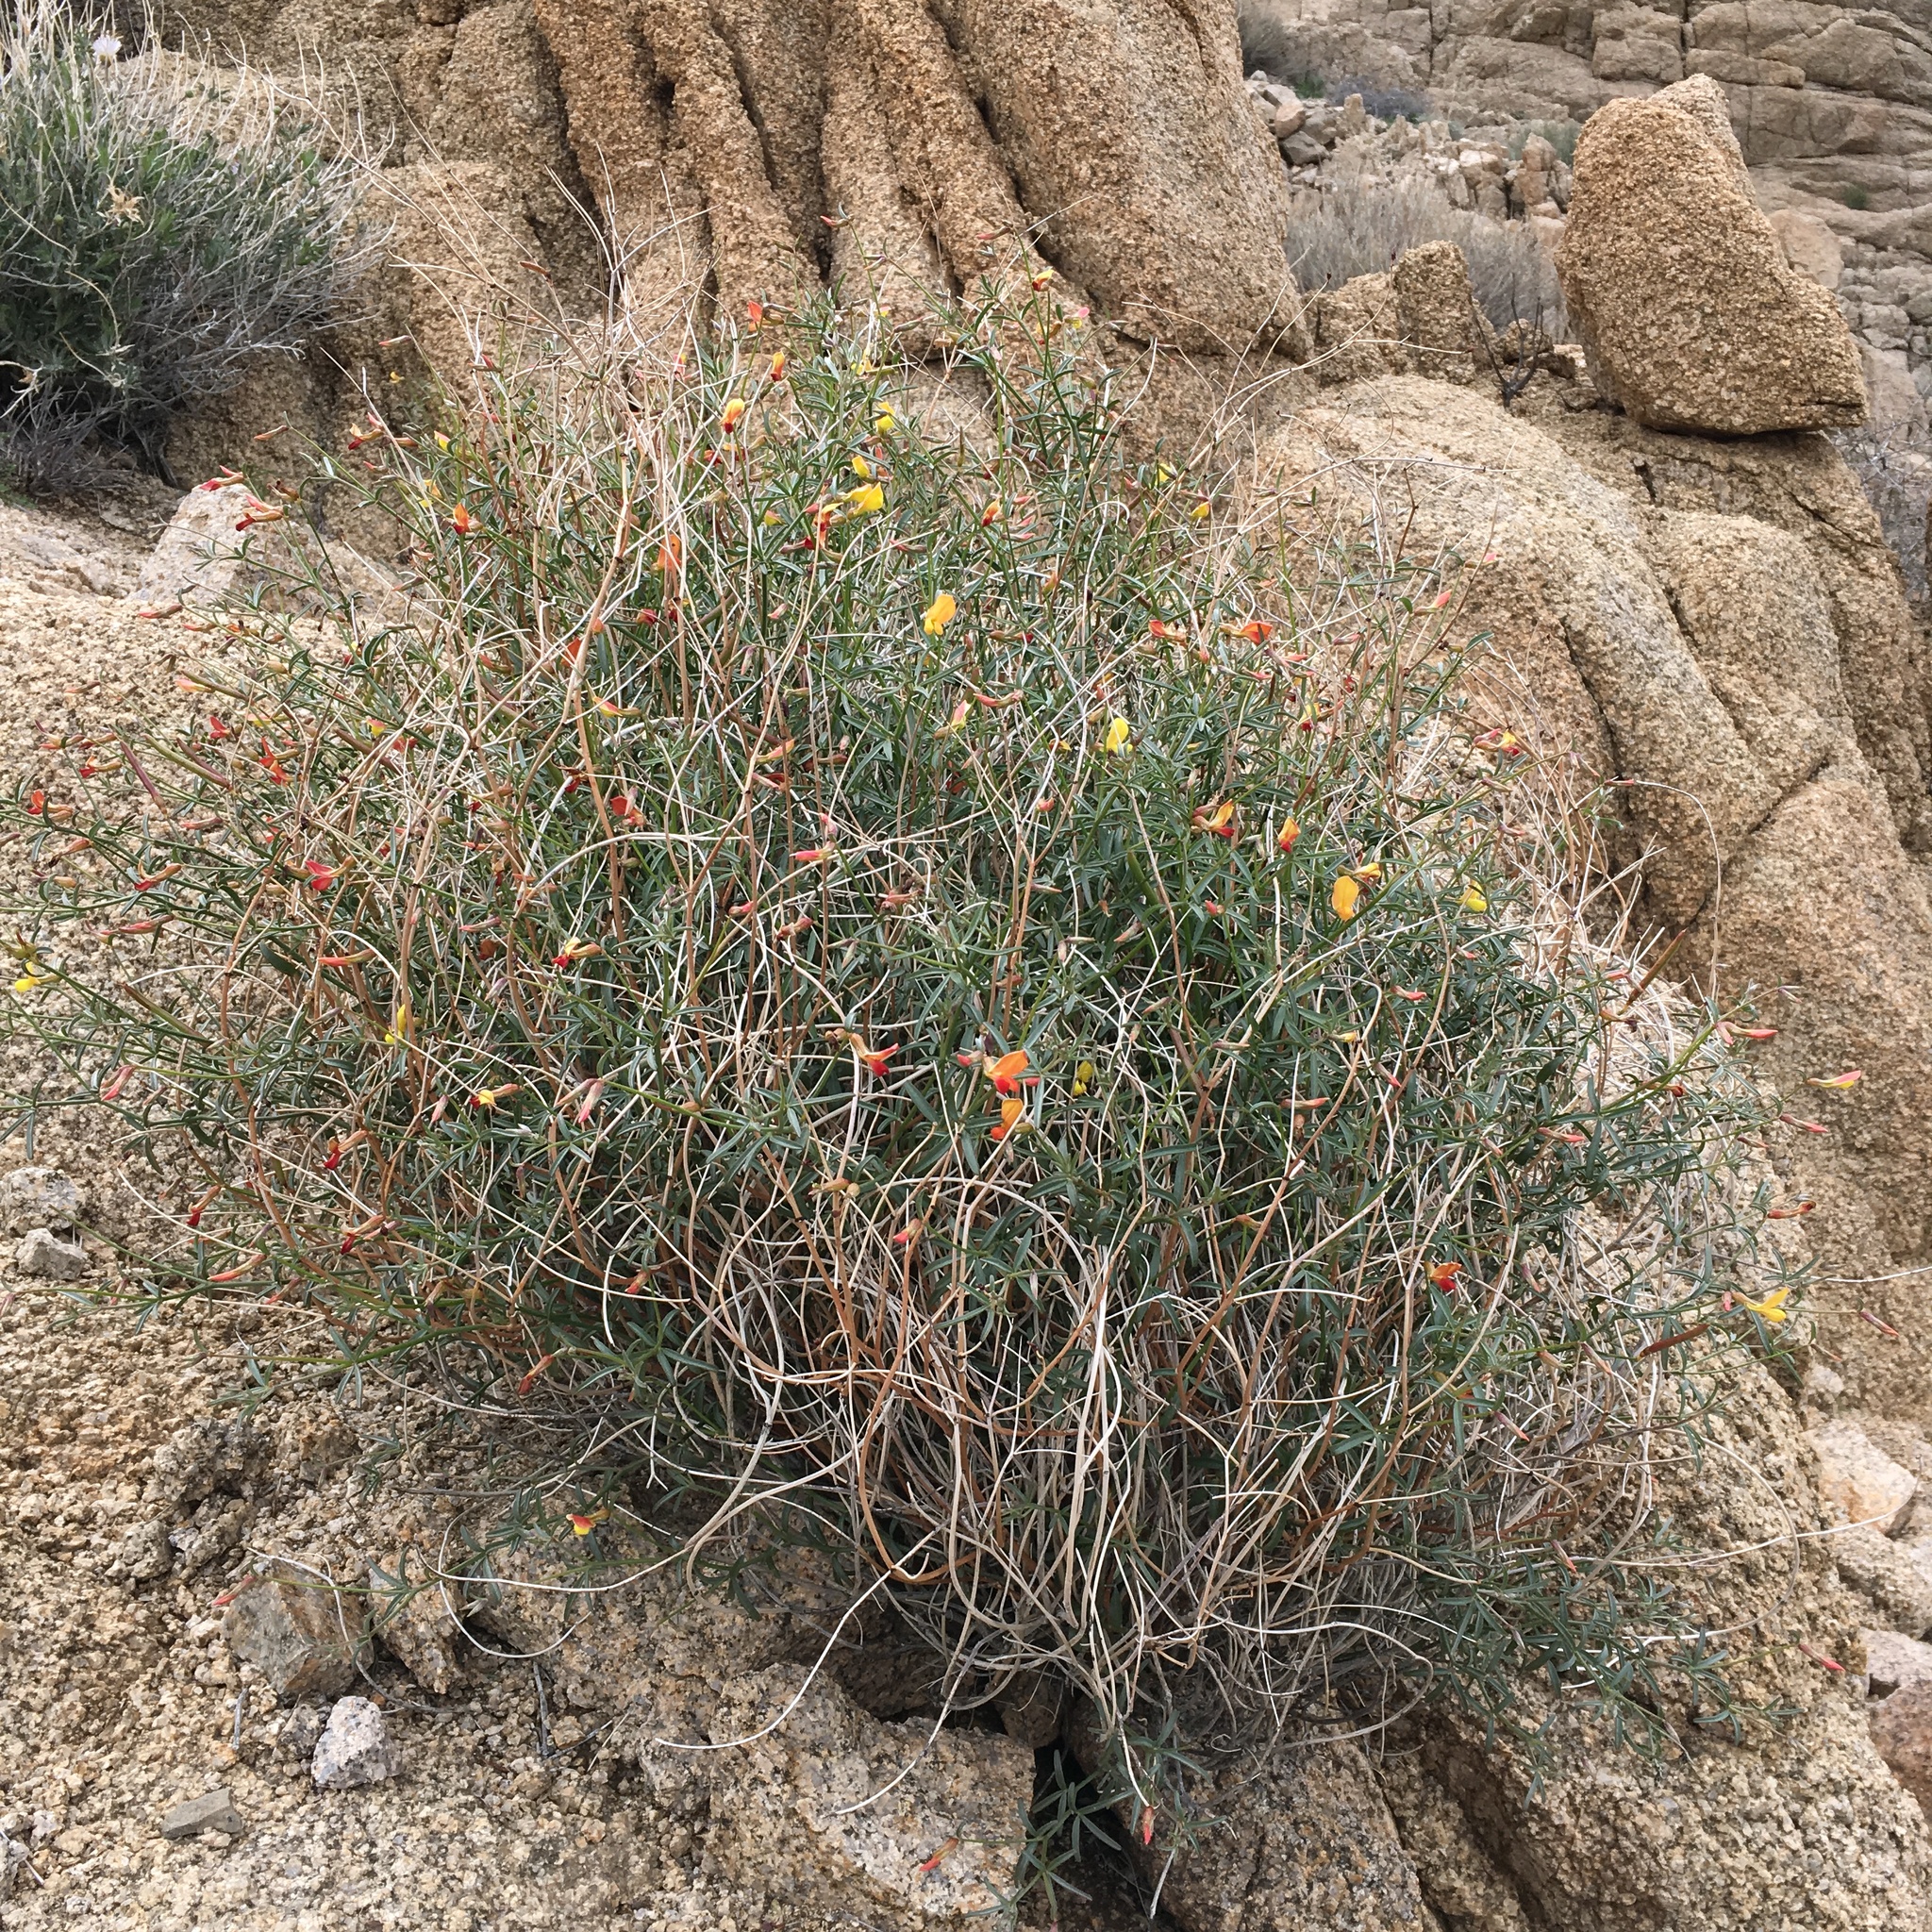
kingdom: Plantae
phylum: Tracheophyta
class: Magnoliopsida
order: Fabales
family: Fabaceae
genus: Acmispon
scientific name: Acmispon rigidus
